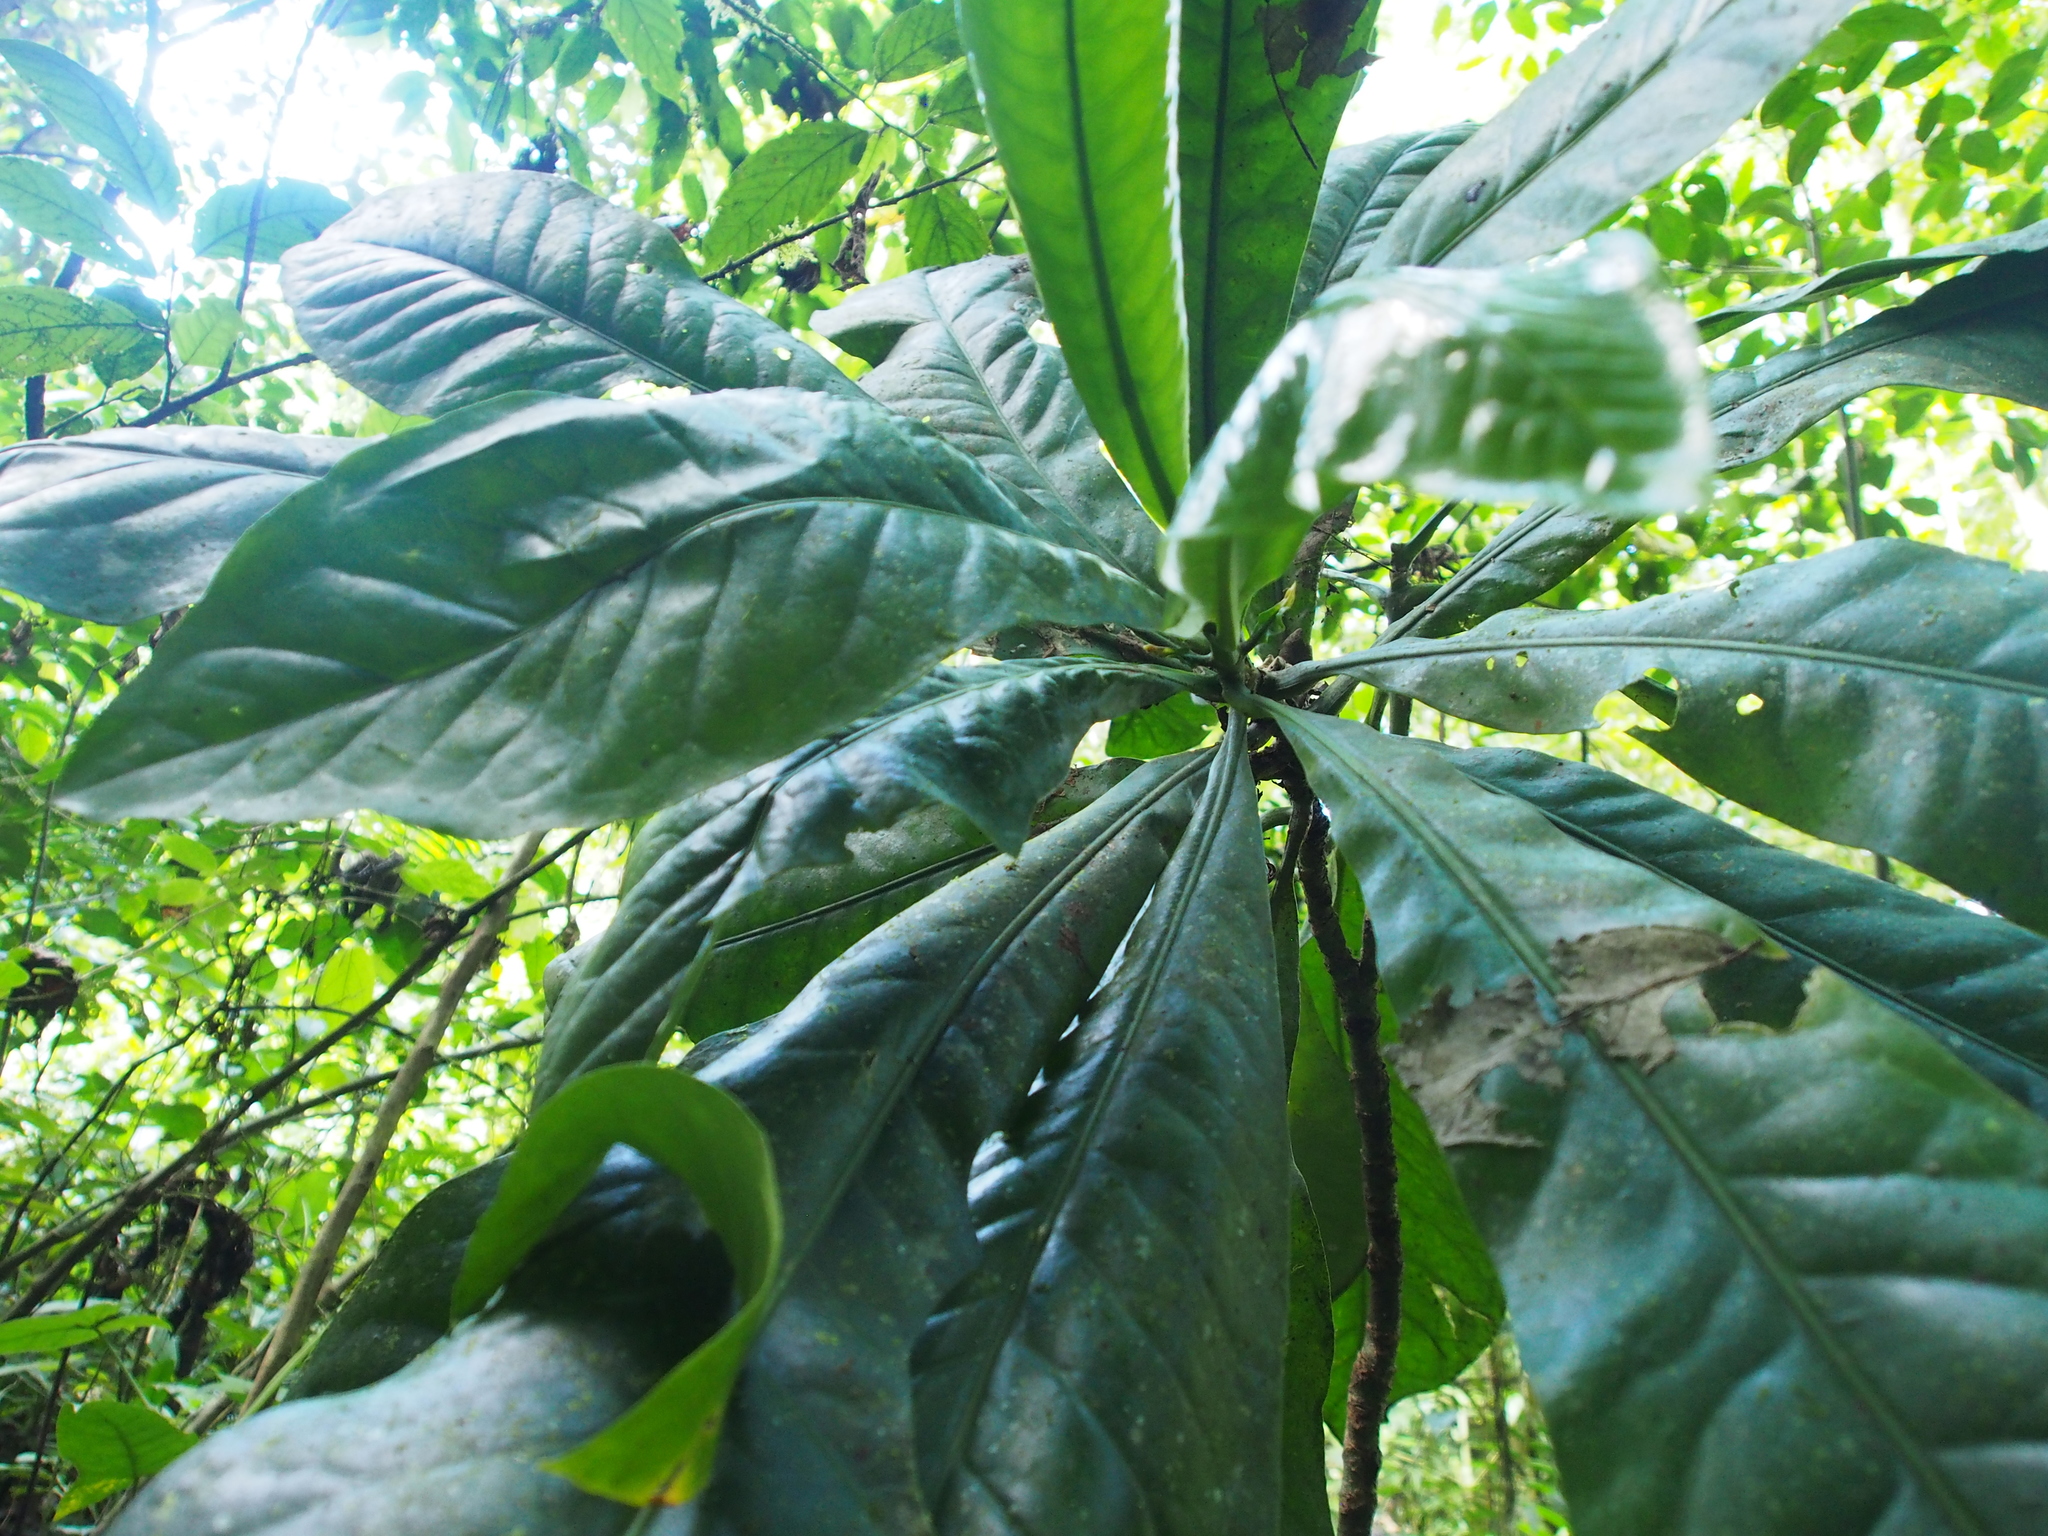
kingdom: Plantae
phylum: Tracheophyta
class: Magnoliopsida
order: Gentianales
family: Gentianaceae
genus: Potalia
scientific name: Potalia turbinata
